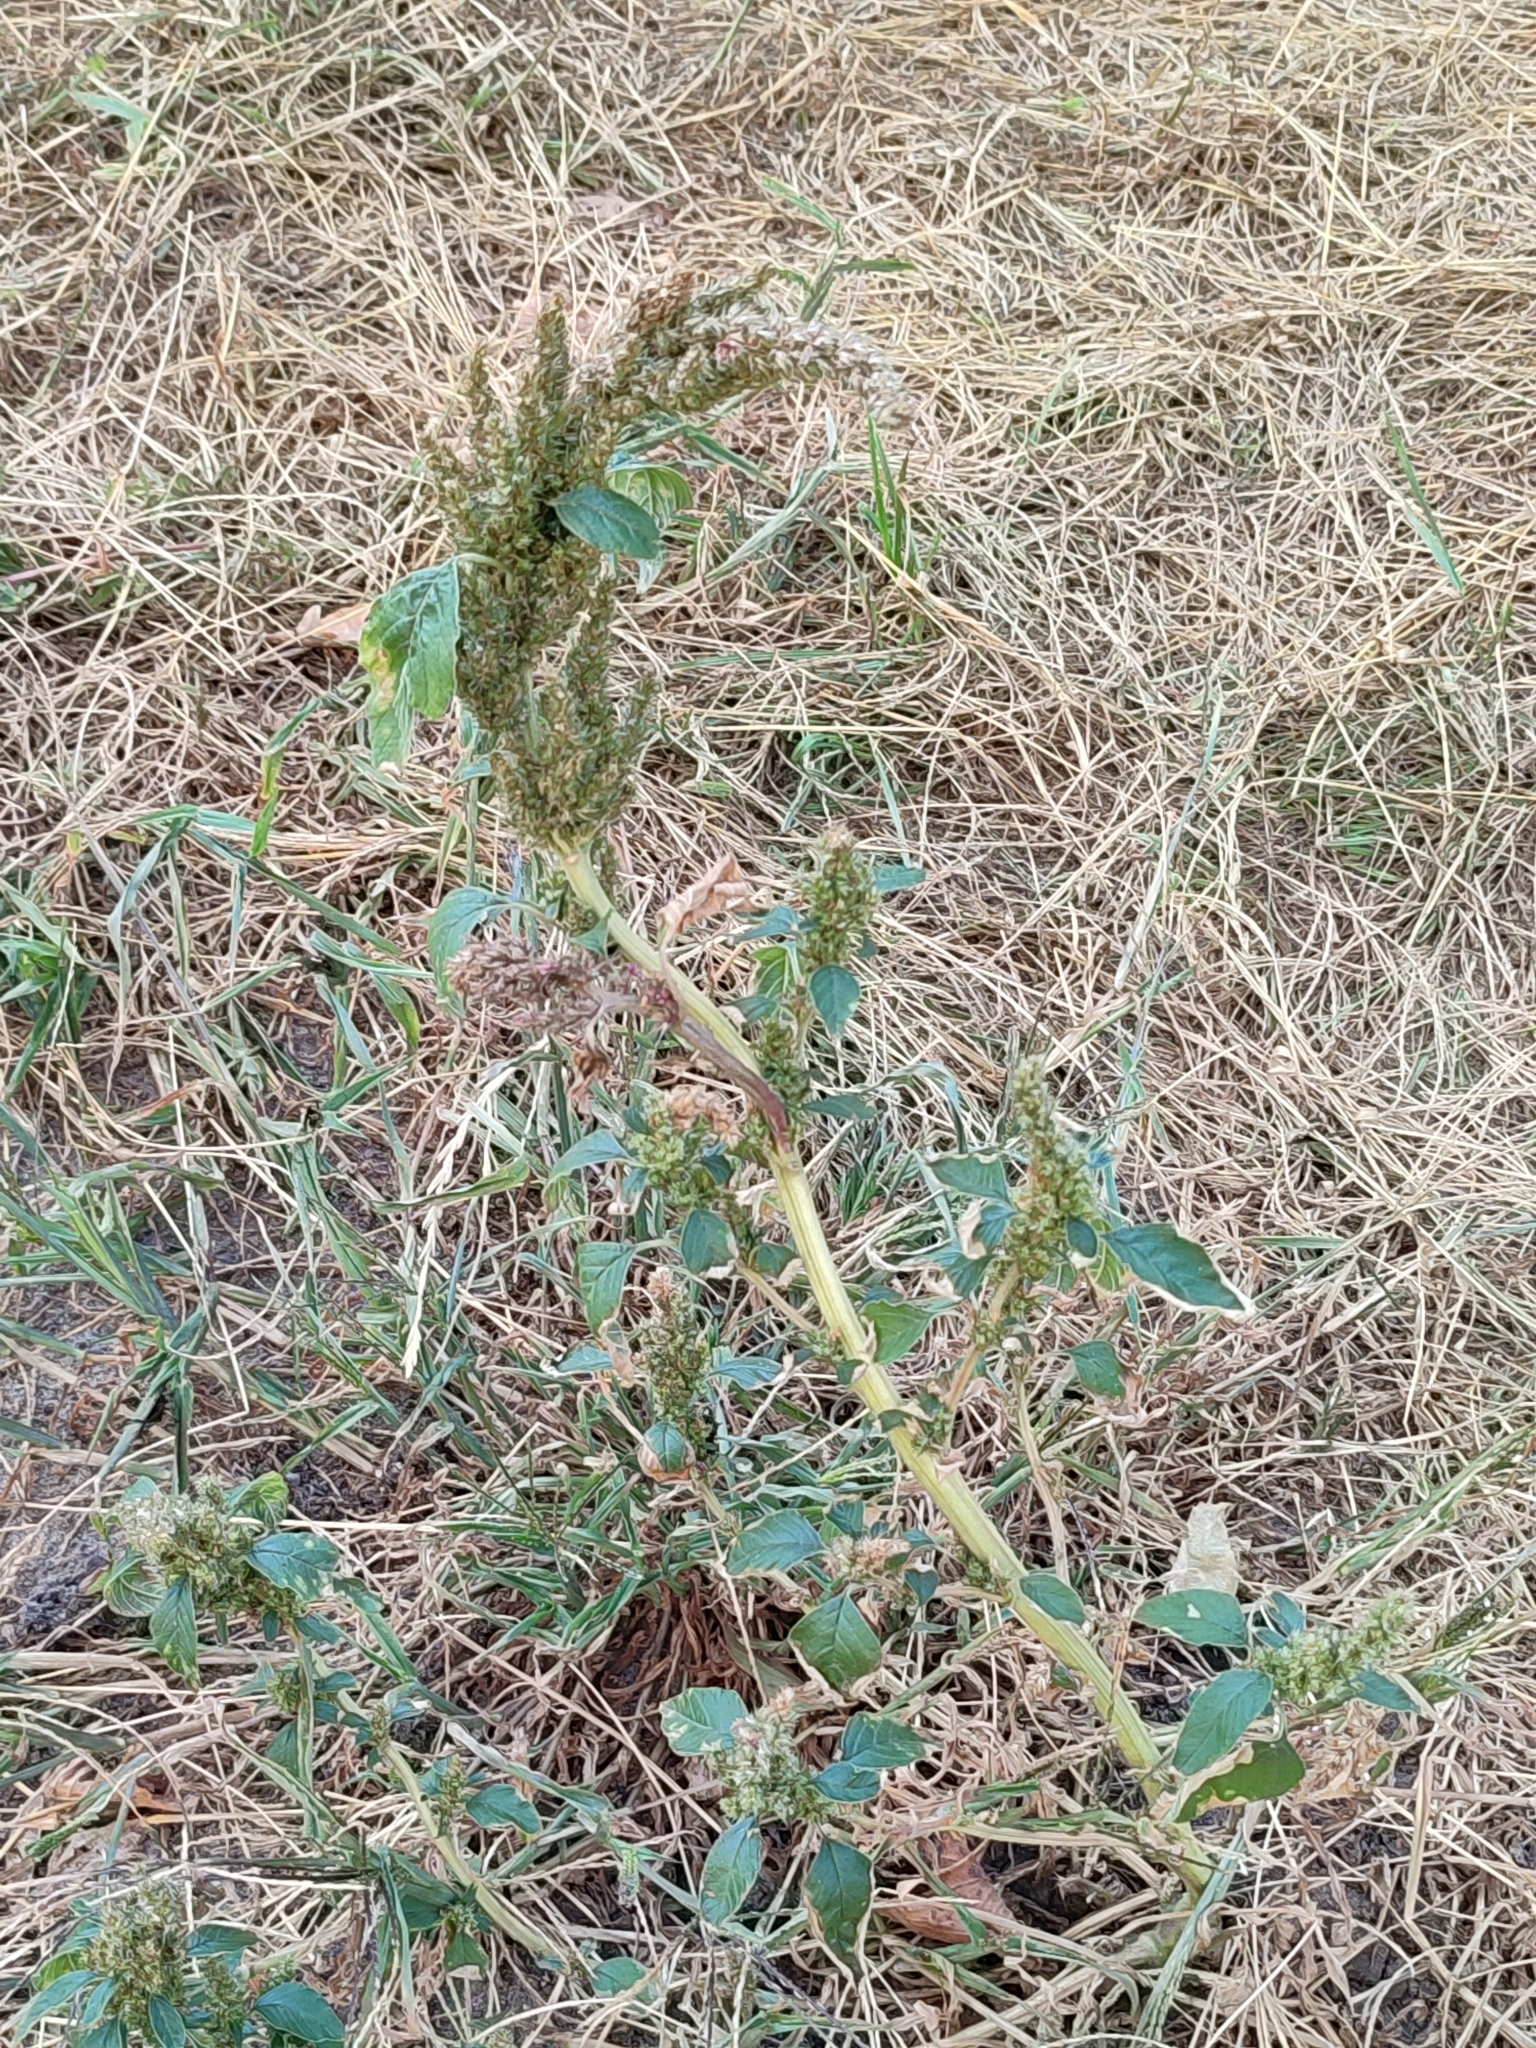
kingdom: Plantae
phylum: Tracheophyta
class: Magnoliopsida
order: Caryophyllales
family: Amaranthaceae
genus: Amaranthus
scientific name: Amaranthus retroflexus
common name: Redroot amaranth
